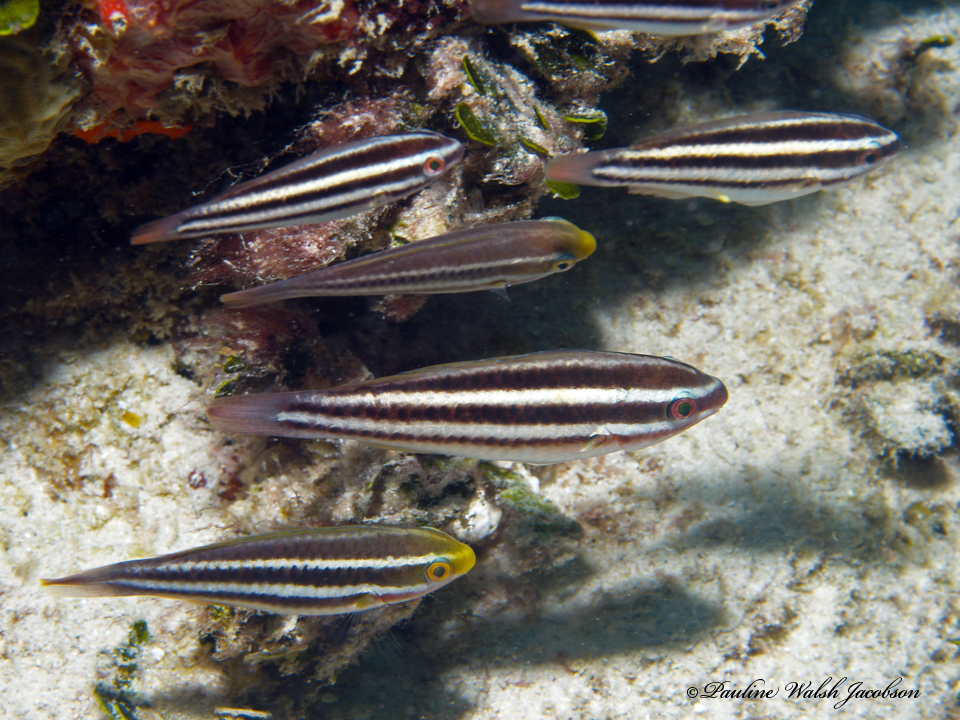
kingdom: Animalia
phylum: Chordata
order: Perciformes
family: Scaridae
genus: Scarus
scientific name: Scarus taeniopterus
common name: Princess parrotfish
